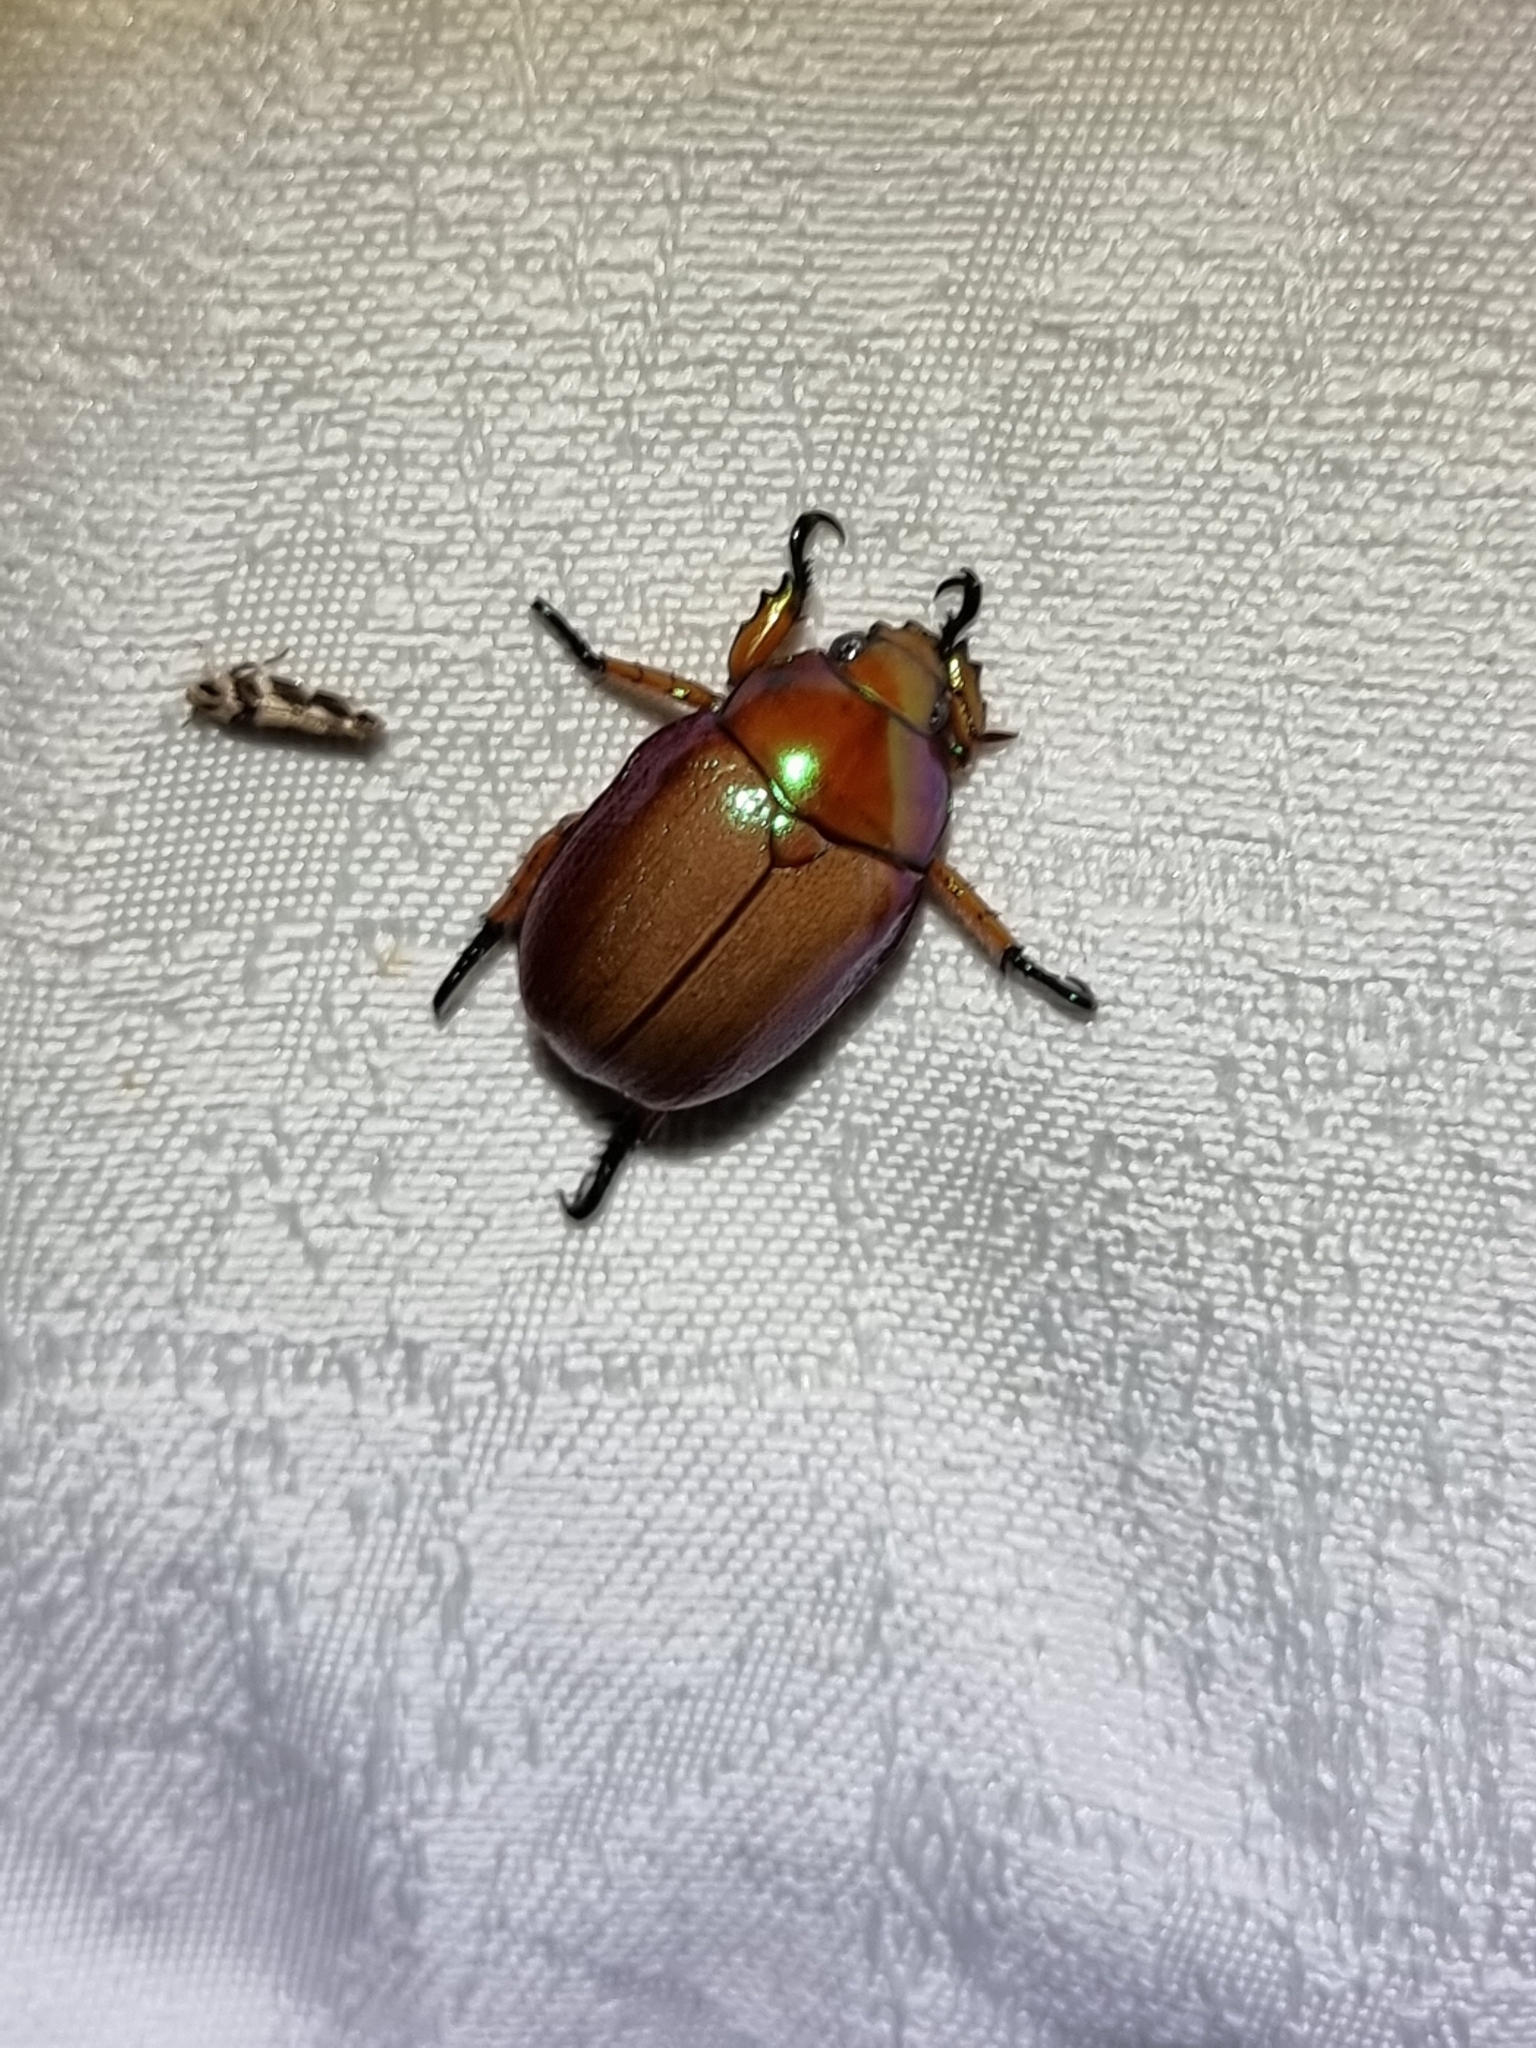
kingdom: Animalia
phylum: Arthropoda
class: Insecta
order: Coleoptera
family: Scarabaeidae
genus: Anoplognathus
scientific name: Anoplognathus rhinastus
